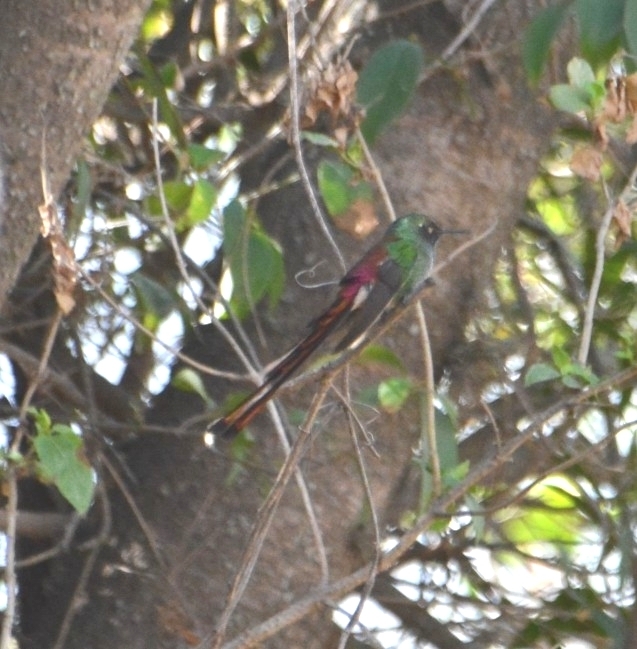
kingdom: Animalia
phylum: Chordata
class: Aves
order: Apodiformes
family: Trochilidae
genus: Sappho
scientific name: Sappho sparganurus
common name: Red-tailed comet
